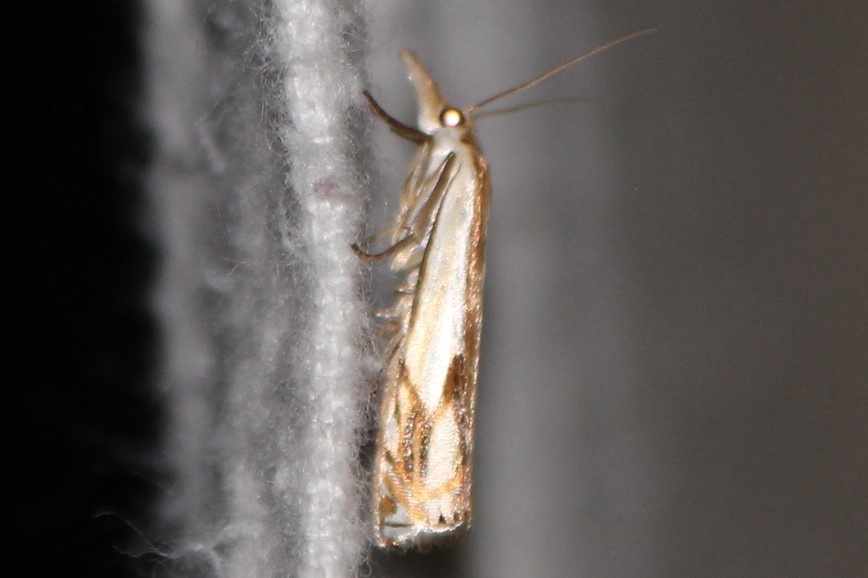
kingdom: Animalia
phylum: Arthropoda
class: Insecta
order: Lepidoptera
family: Crambidae
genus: Crambus
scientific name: Crambus agitatellus
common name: Double-banded grass-veneer
